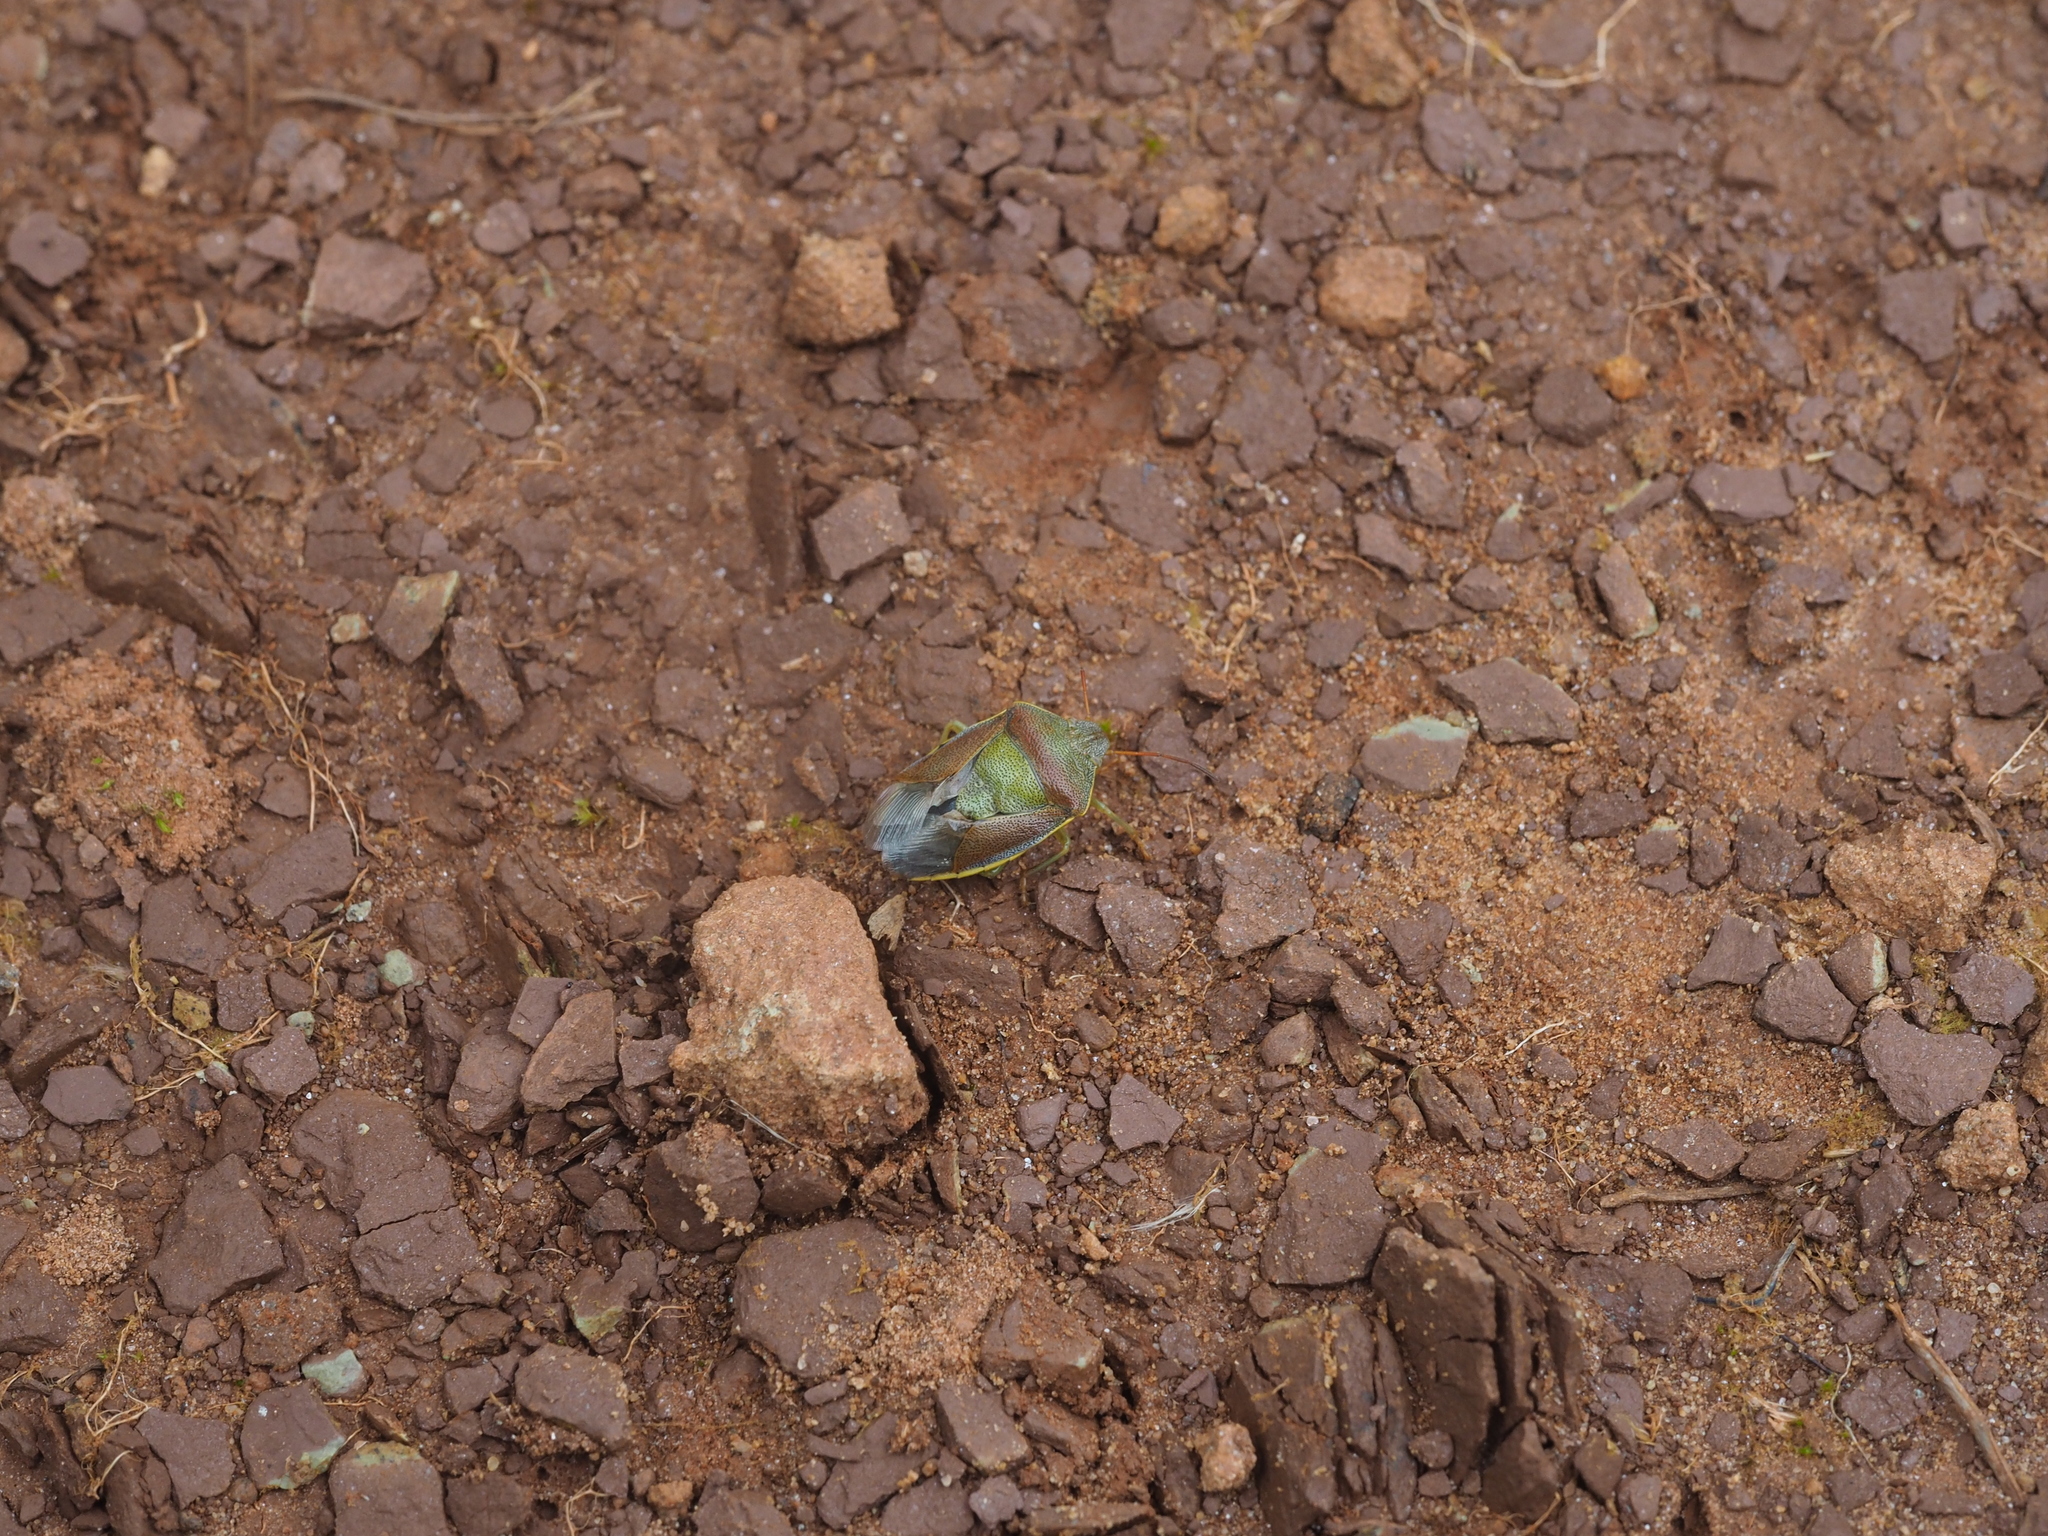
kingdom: Animalia
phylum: Arthropoda
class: Insecta
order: Hemiptera
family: Pentatomidae
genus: Piezodorus
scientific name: Piezodorus lituratus
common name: Stink bug
